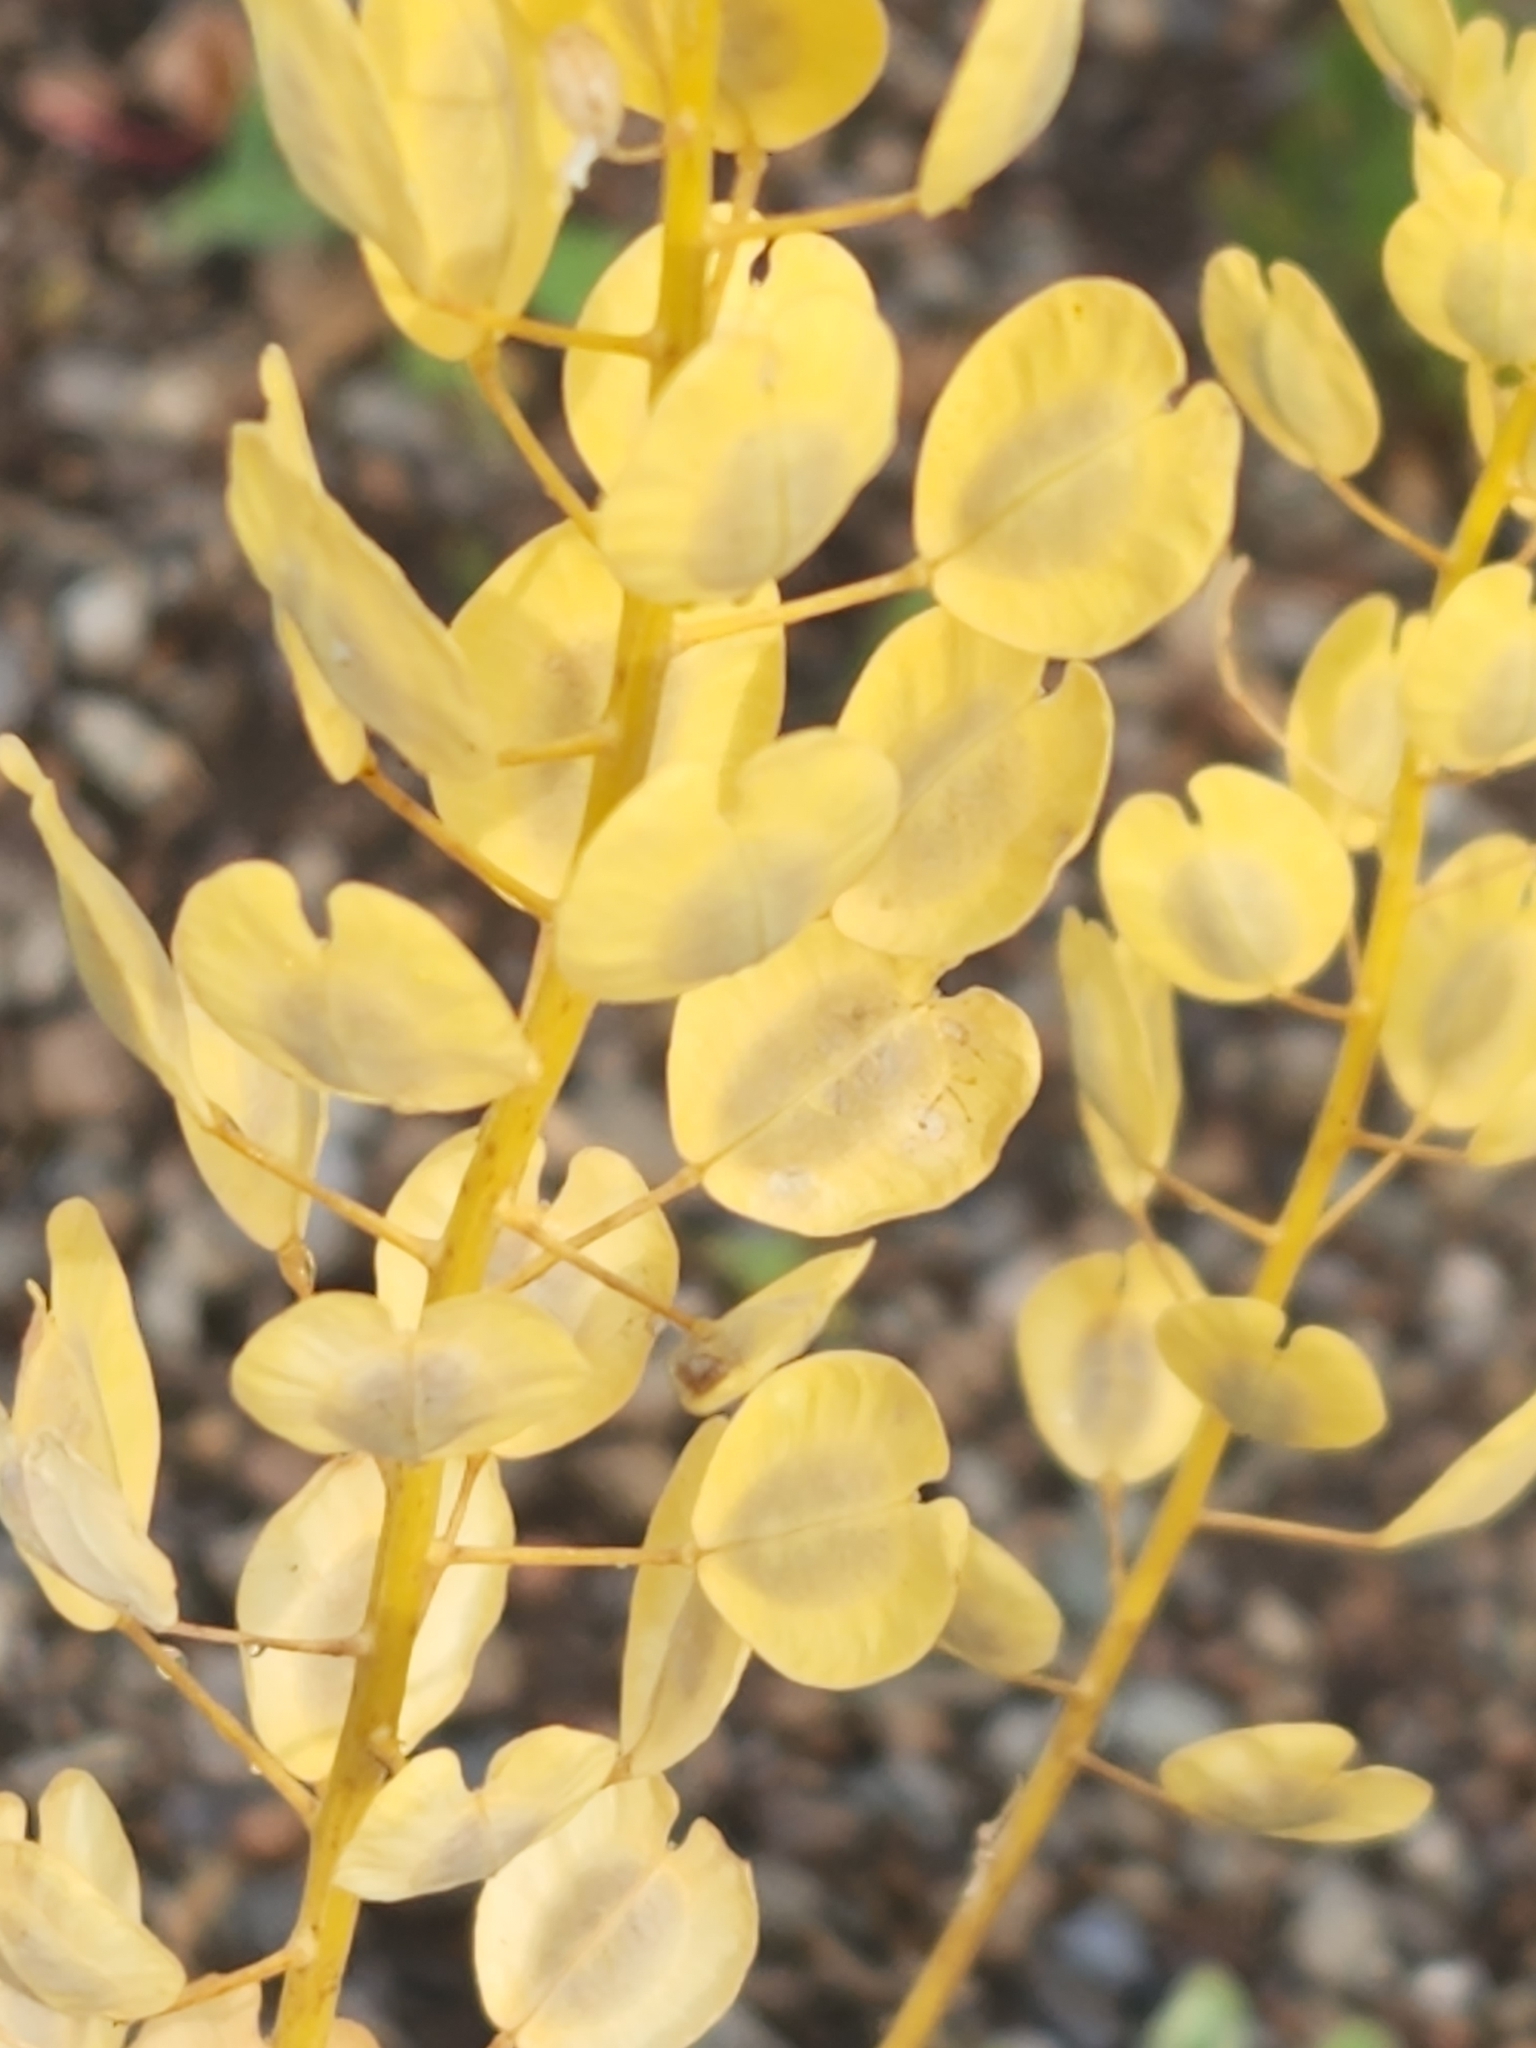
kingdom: Plantae
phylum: Tracheophyta
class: Magnoliopsida
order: Brassicales
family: Brassicaceae
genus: Thlaspi
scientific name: Thlaspi arvense
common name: Field pennycress
